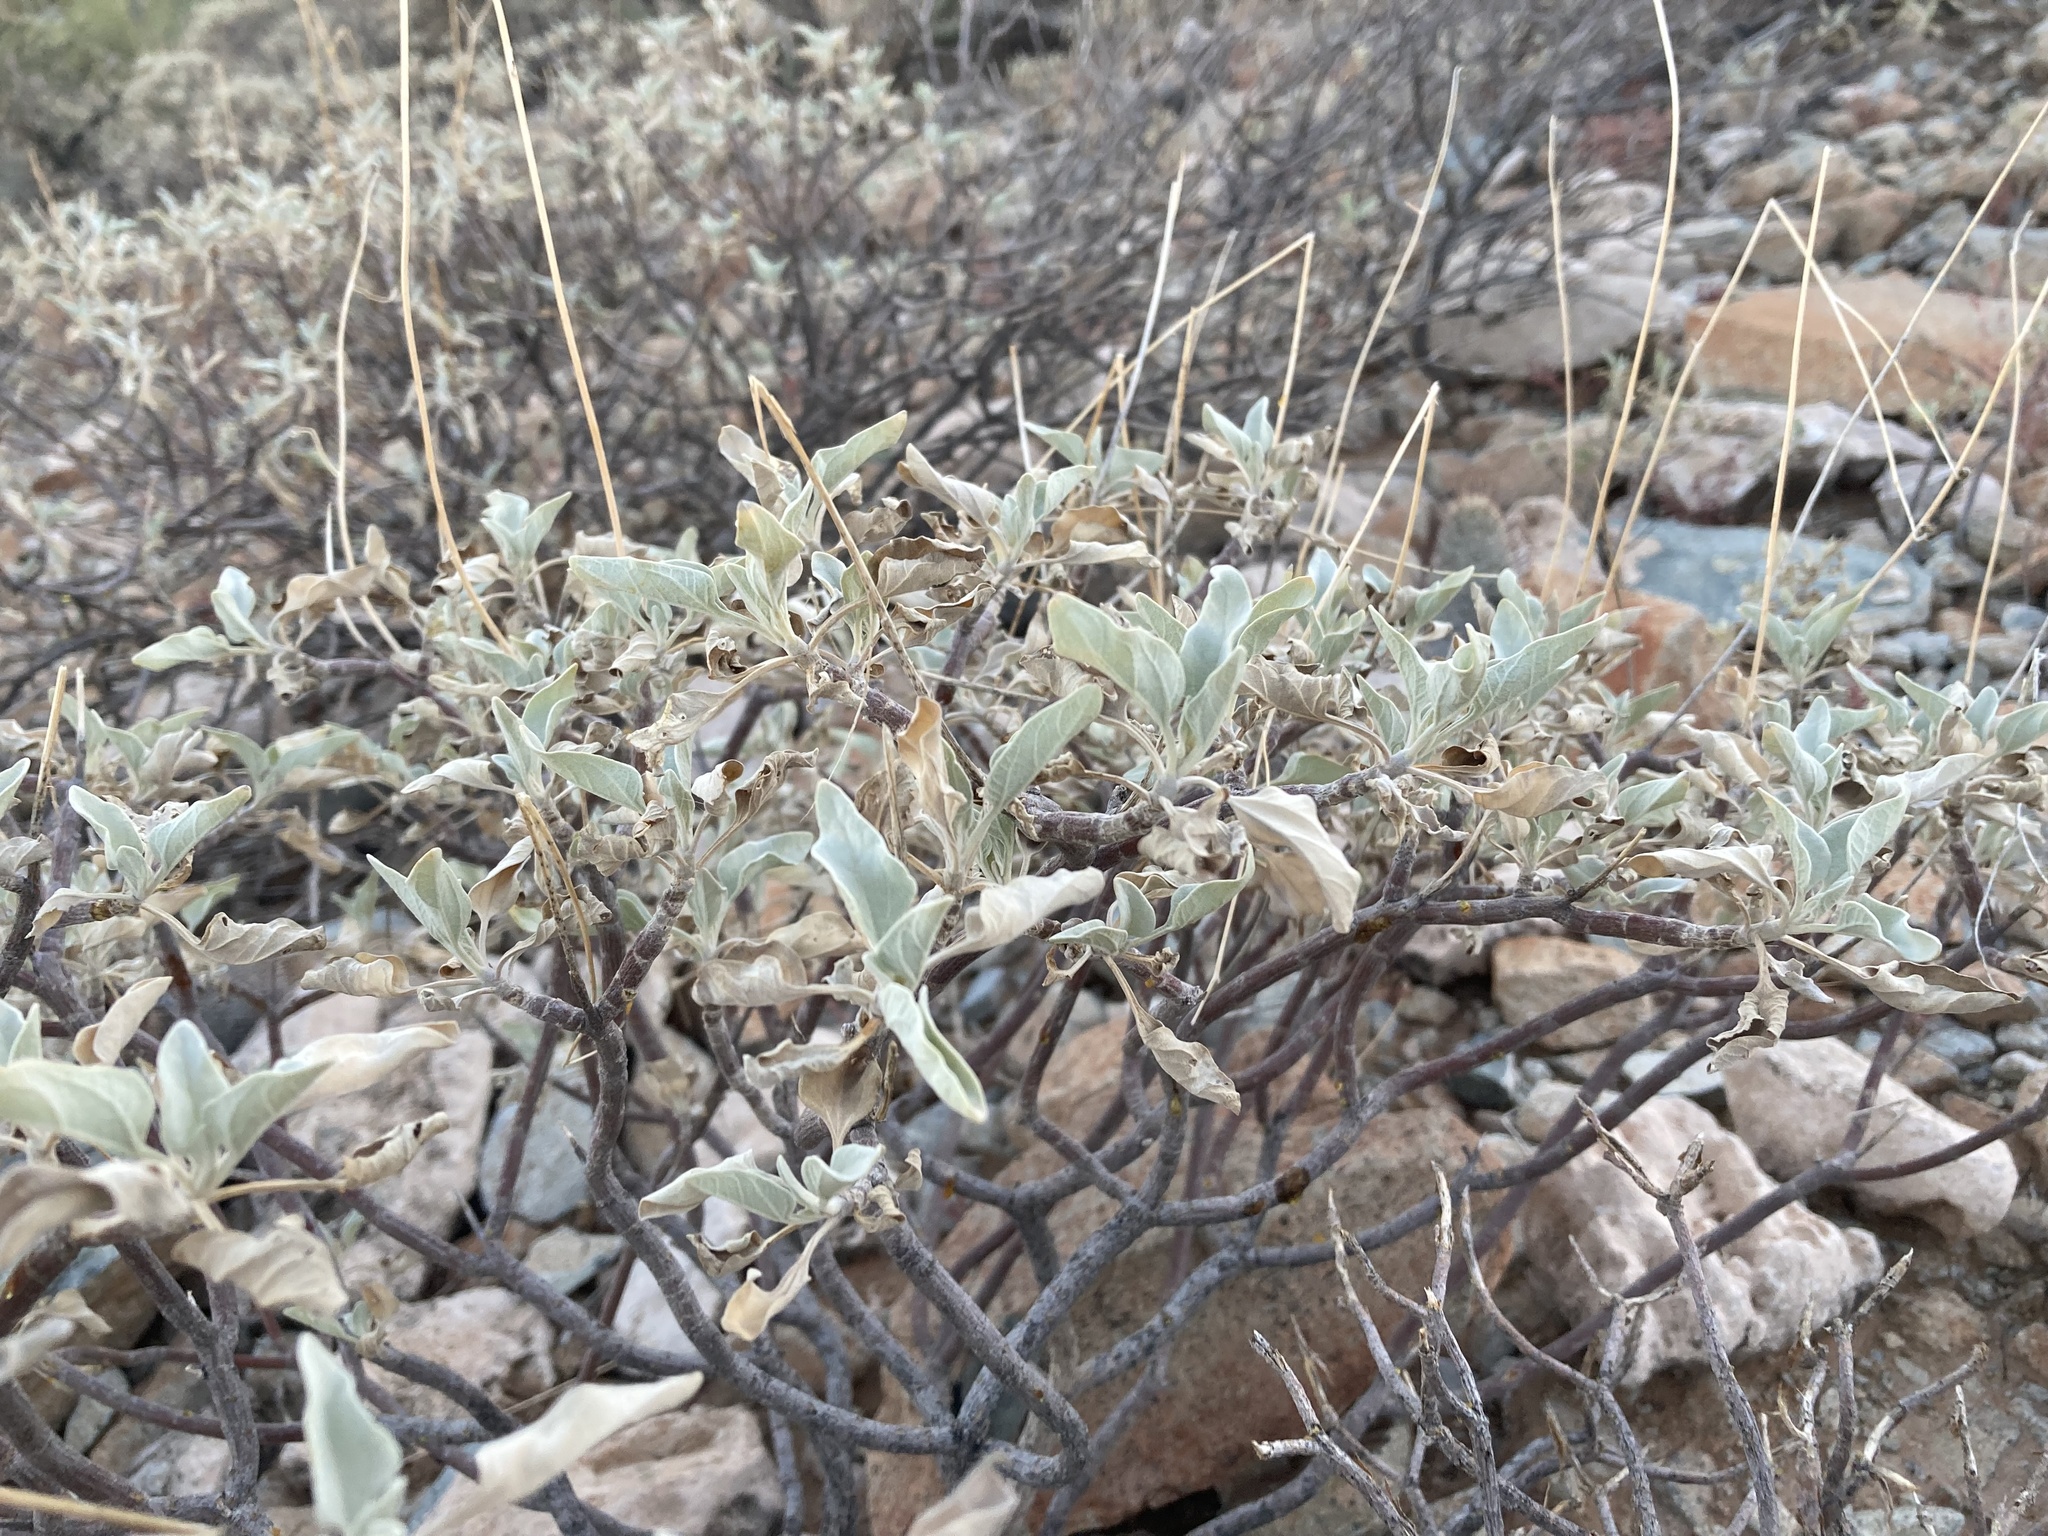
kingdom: Plantae
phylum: Tracheophyta
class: Magnoliopsida
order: Asterales
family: Asteraceae
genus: Encelia
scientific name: Encelia farinosa
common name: Brittlebush
